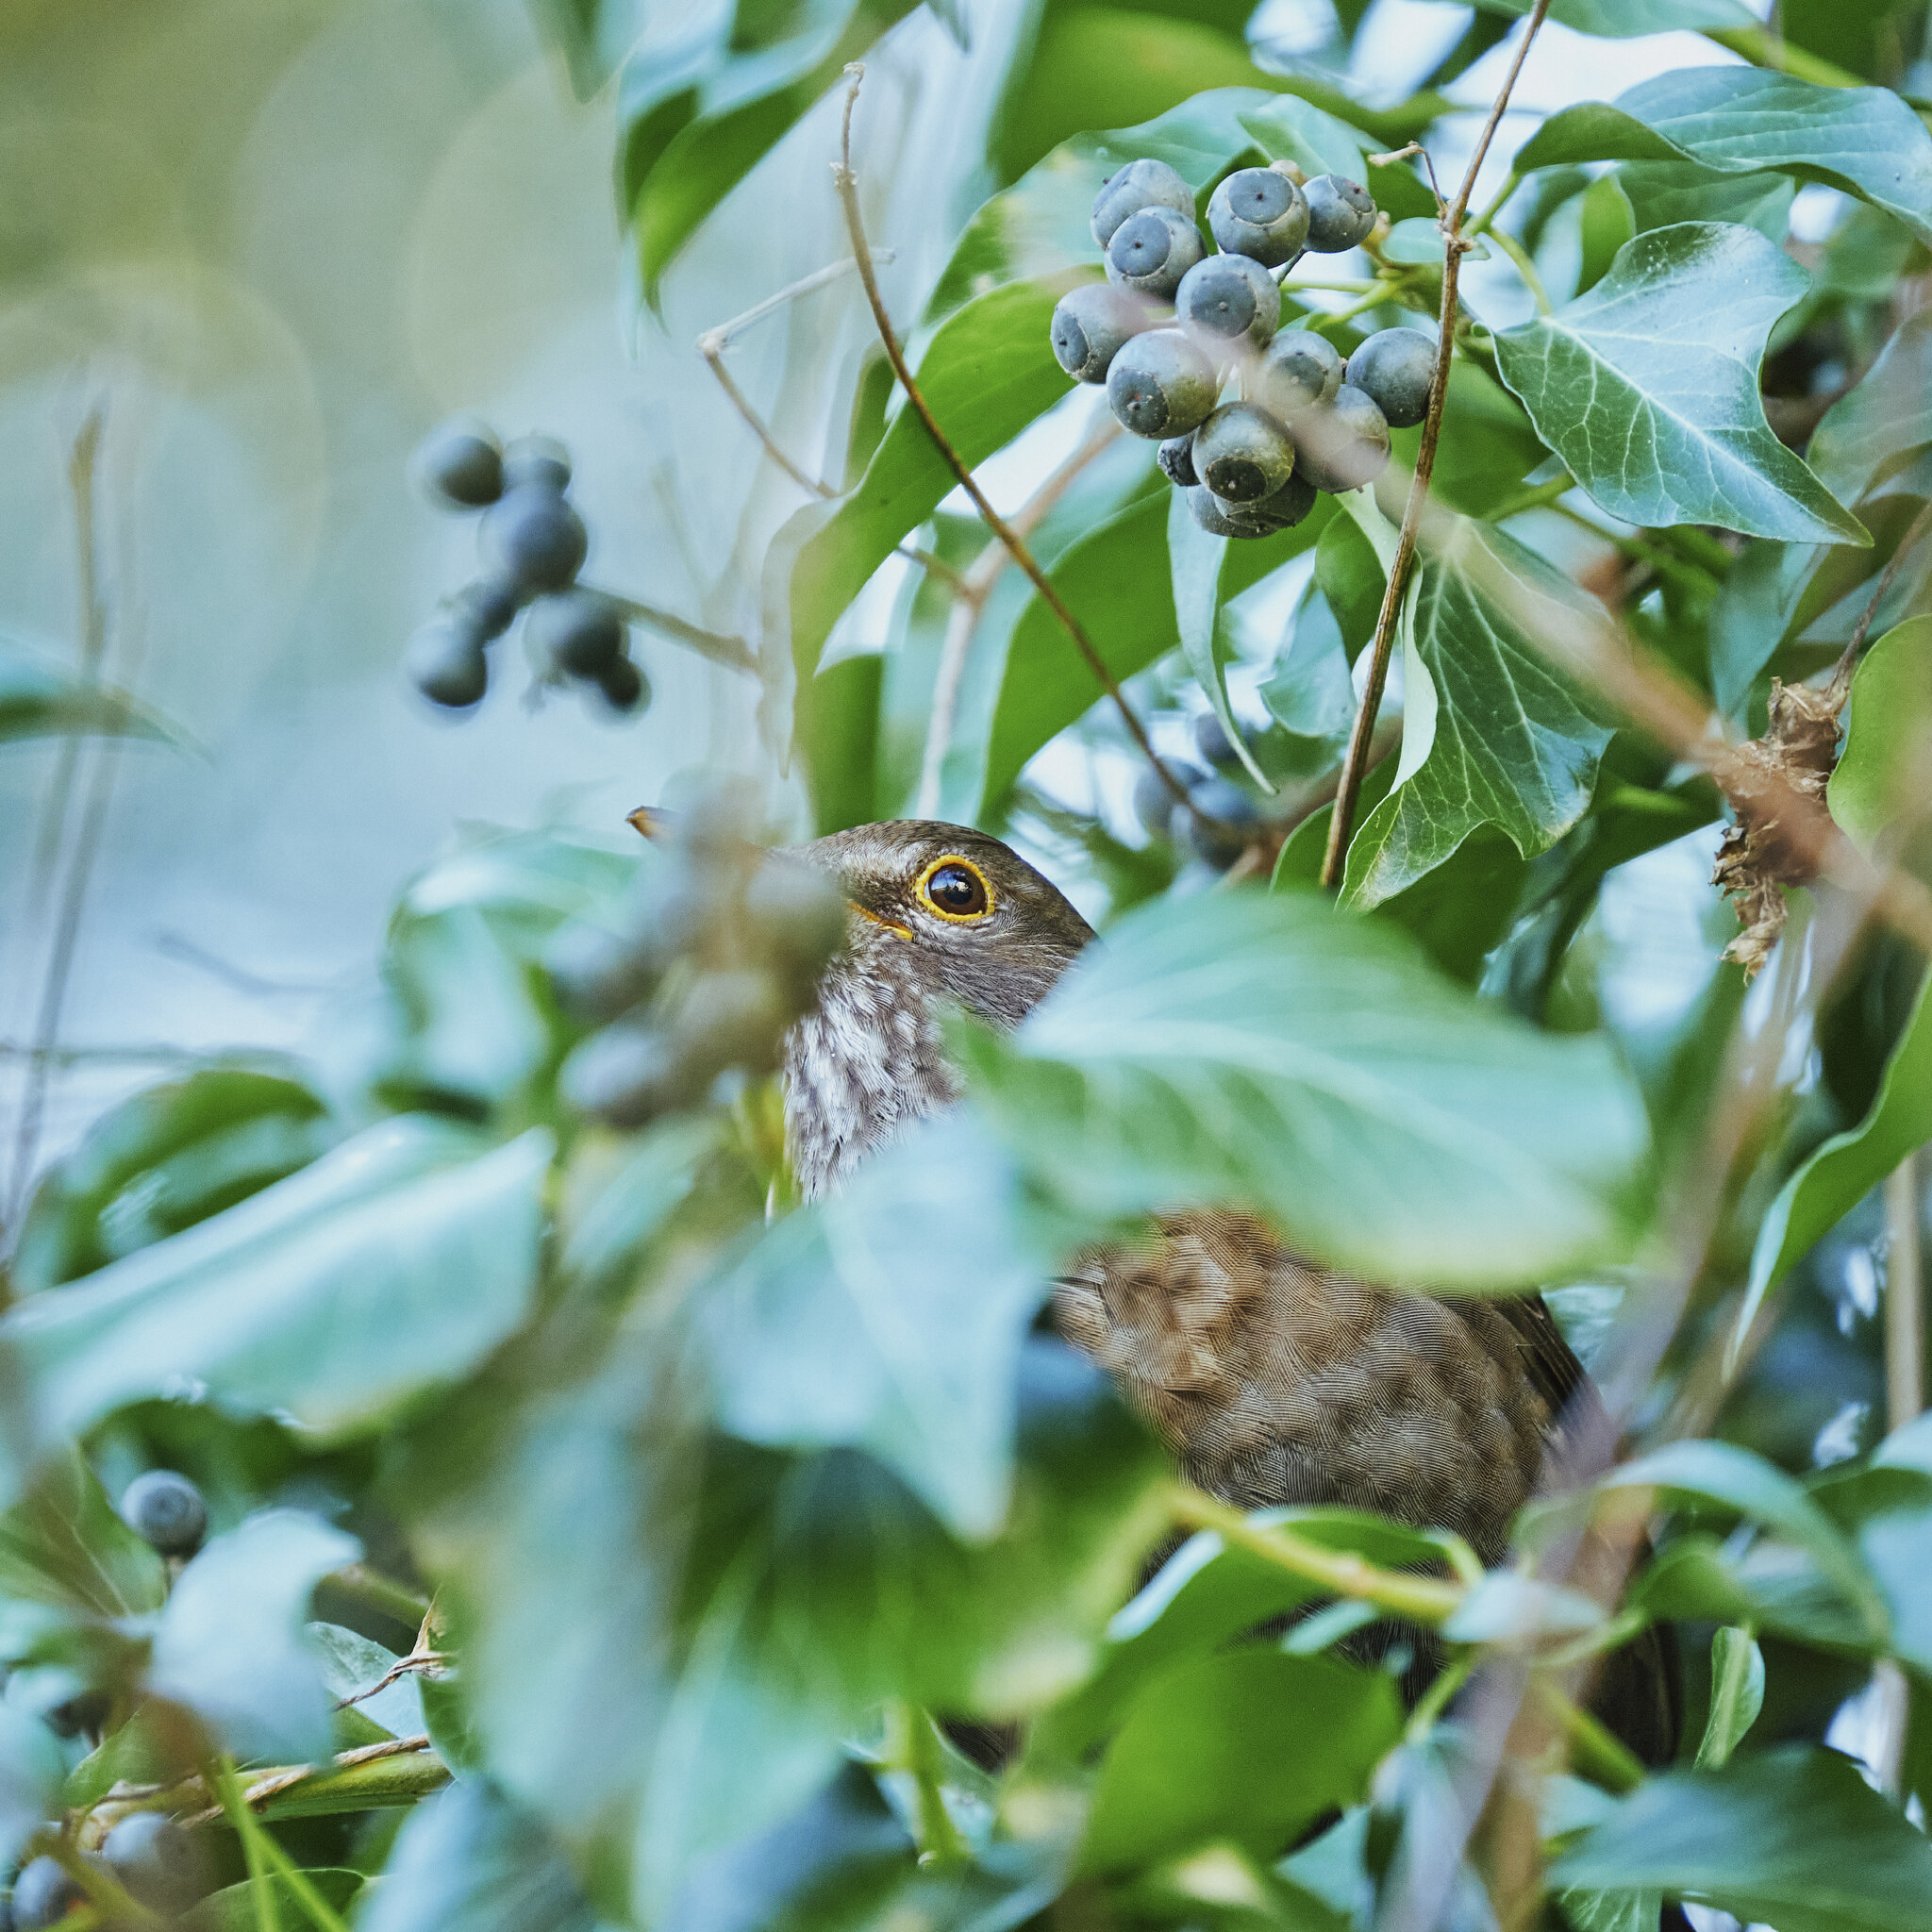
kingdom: Animalia
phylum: Chordata
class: Aves
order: Passeriformes
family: Turdidae
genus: Turdus
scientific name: Turdus merula
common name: Common blackbird
